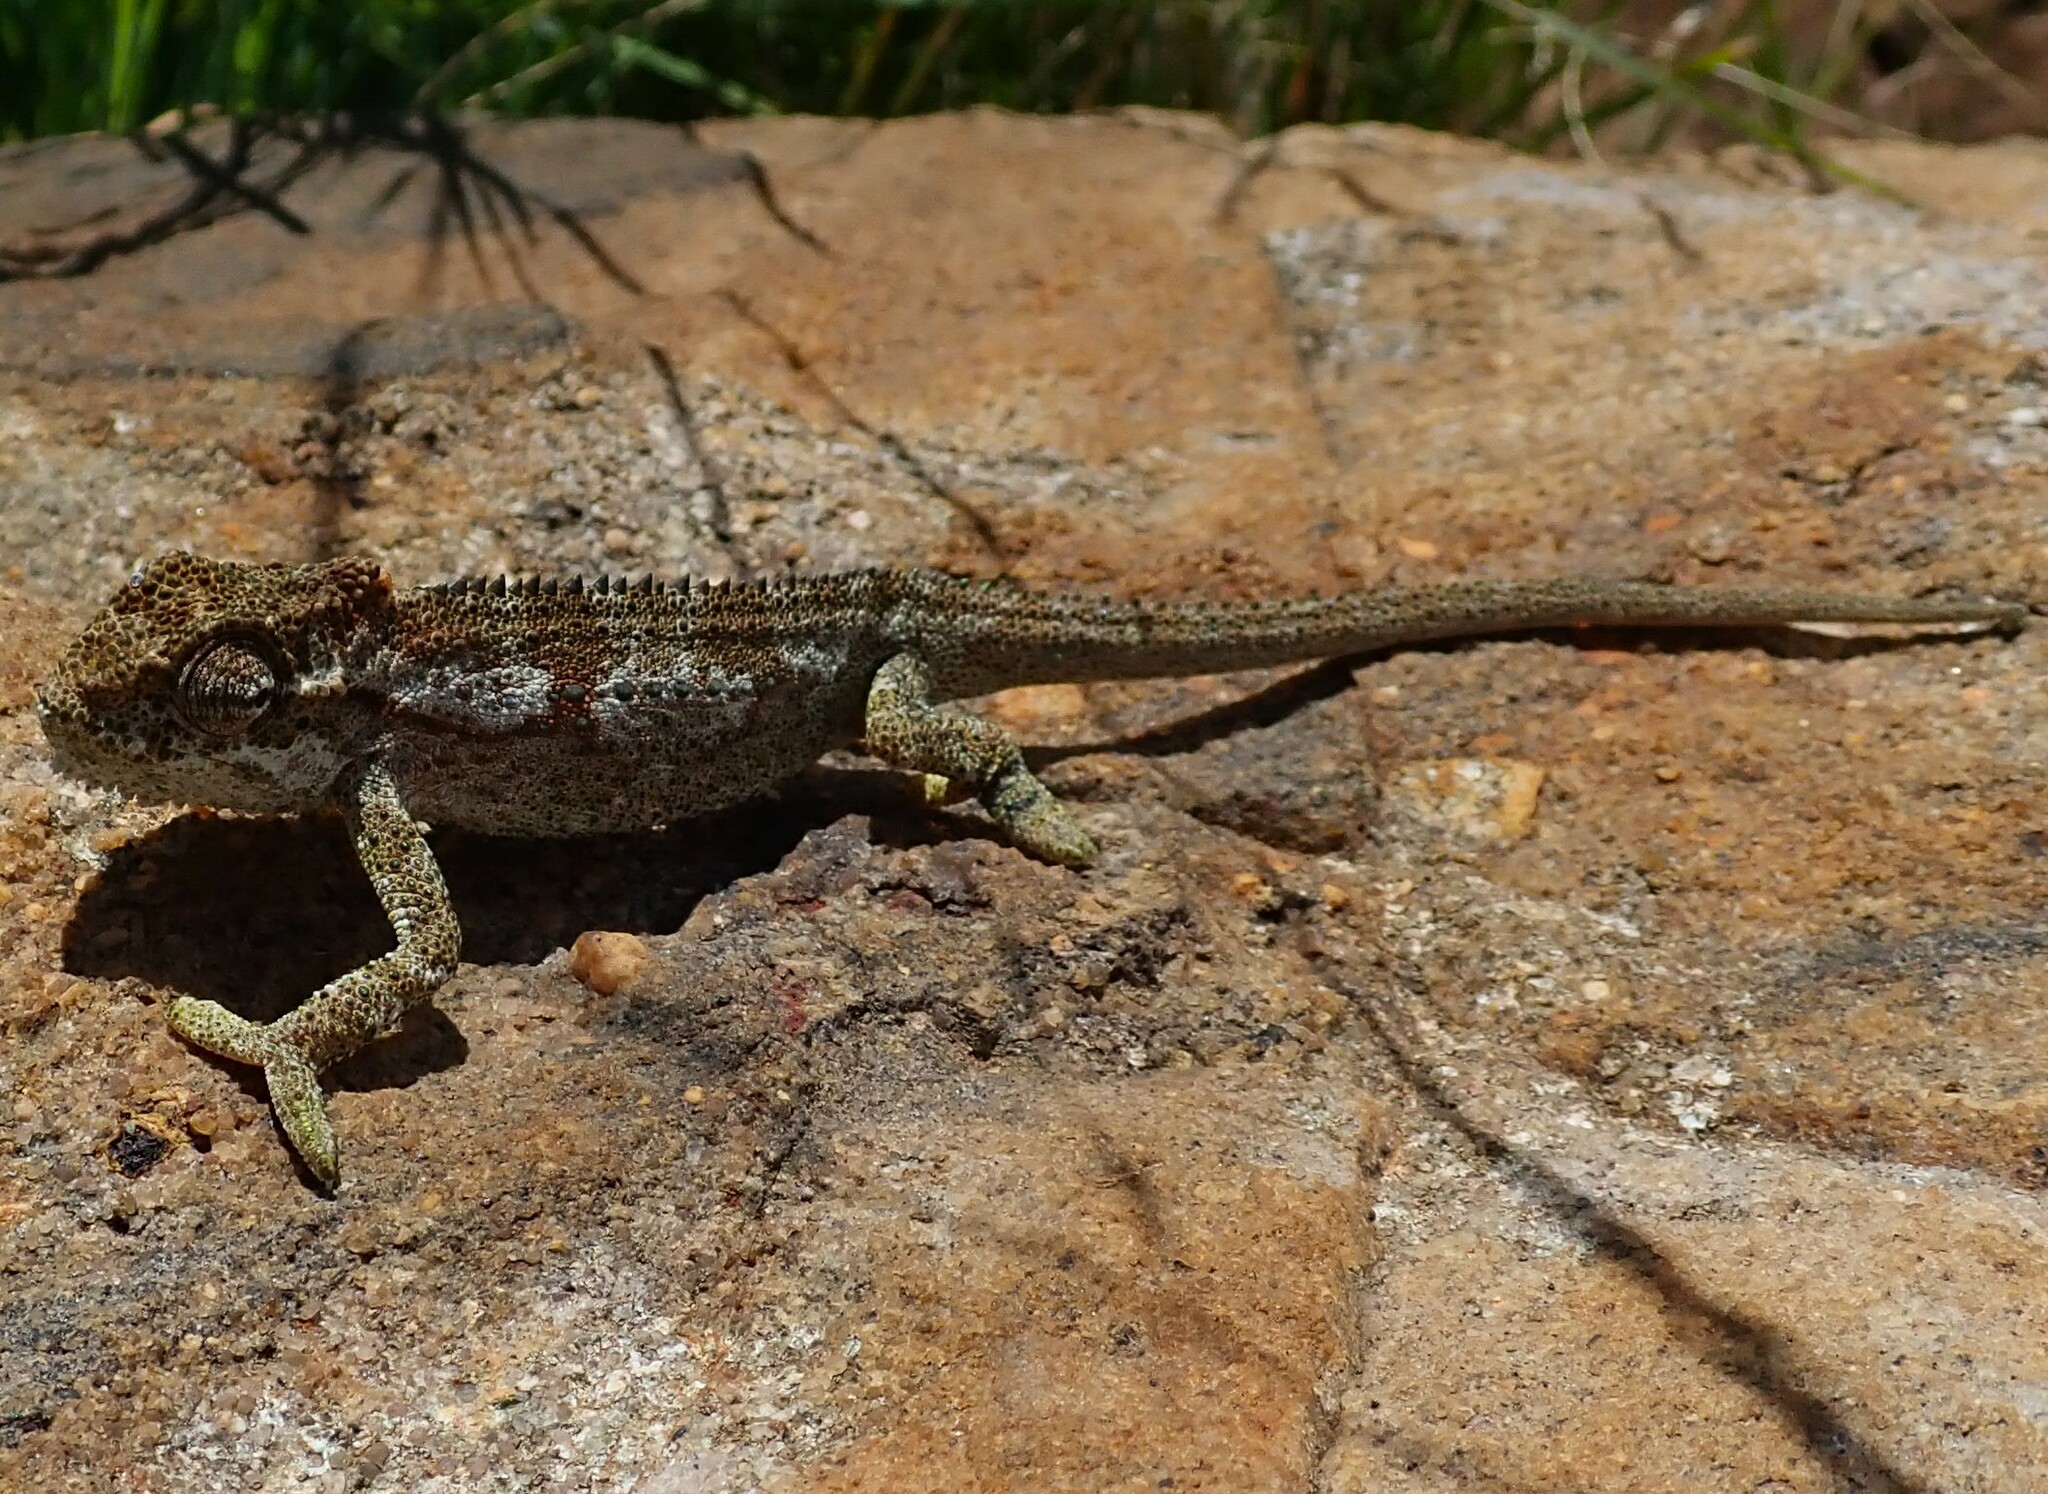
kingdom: Animalia
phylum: Chordata
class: Squamata
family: Chamaeleonidae
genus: Bradypodion
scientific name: Bradypodion transvaalense
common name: Transvaal dwarf chameleon
